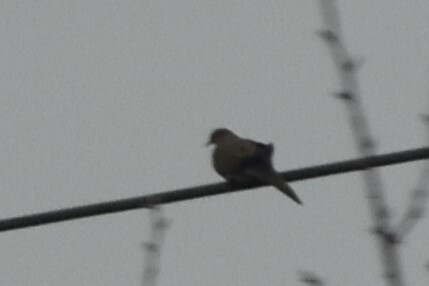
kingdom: Animalia
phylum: Chordata
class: Aves
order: Columbiformes
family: Columbidae
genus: Zenaida
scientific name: Zenaida macroura
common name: Mourning dove
